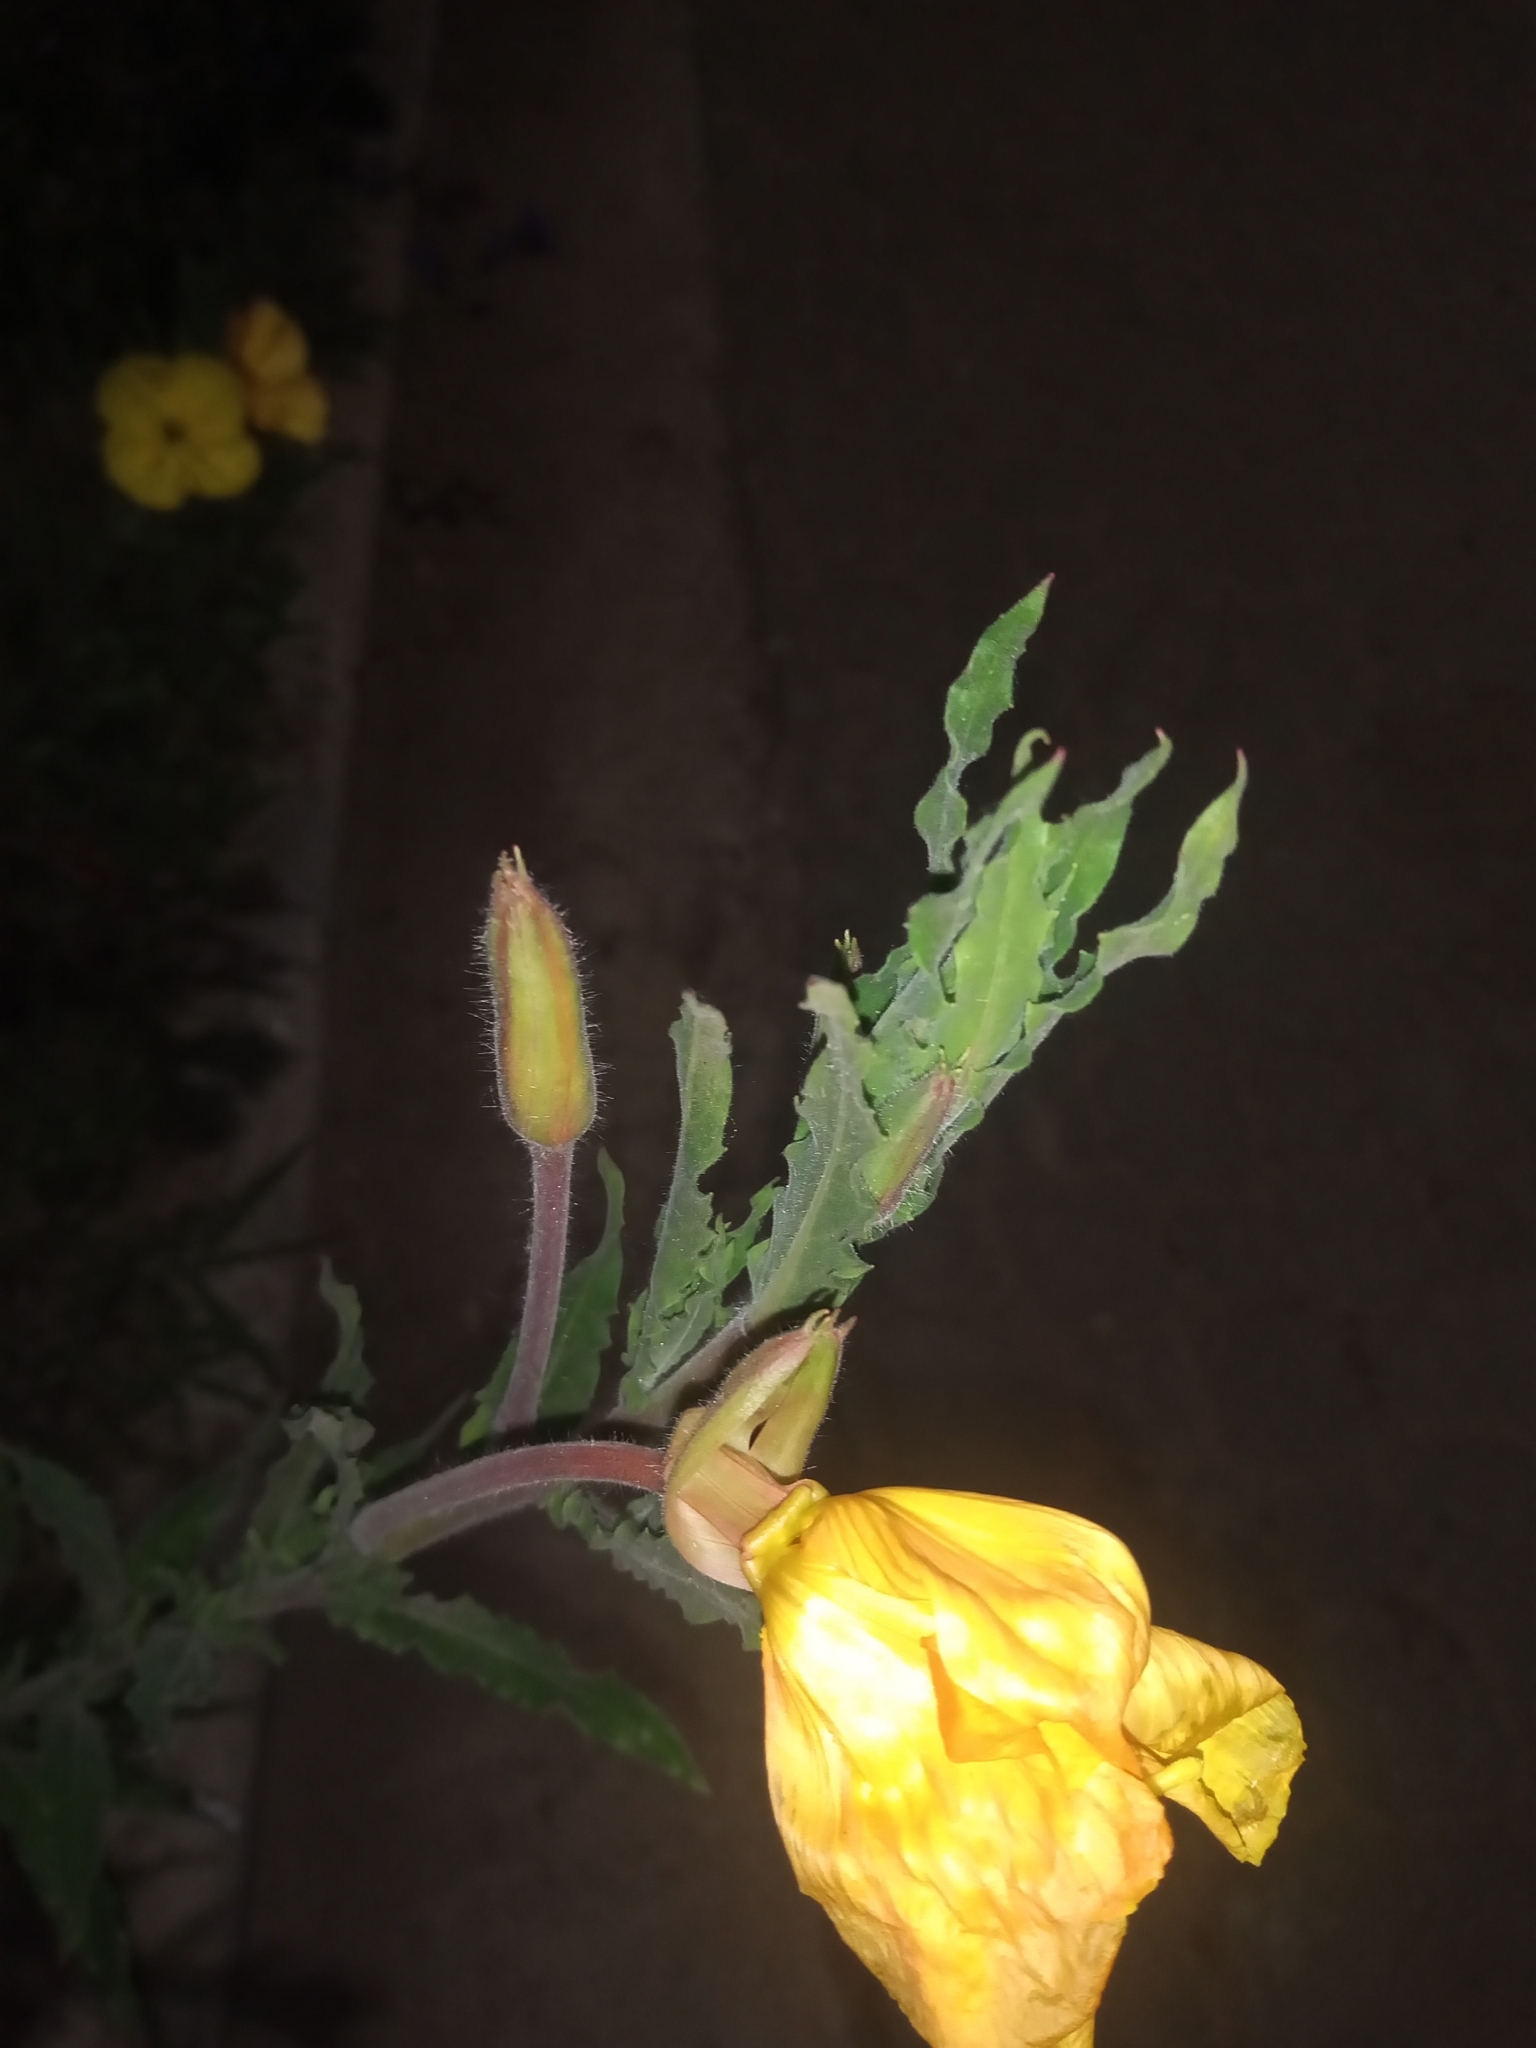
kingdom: Plantae
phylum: Tracheophyta
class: Magnoliopsida
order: Myrtales
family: Onagraceae
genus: Oenothera
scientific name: Oenothera affinis
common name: Longflower evening primrose
